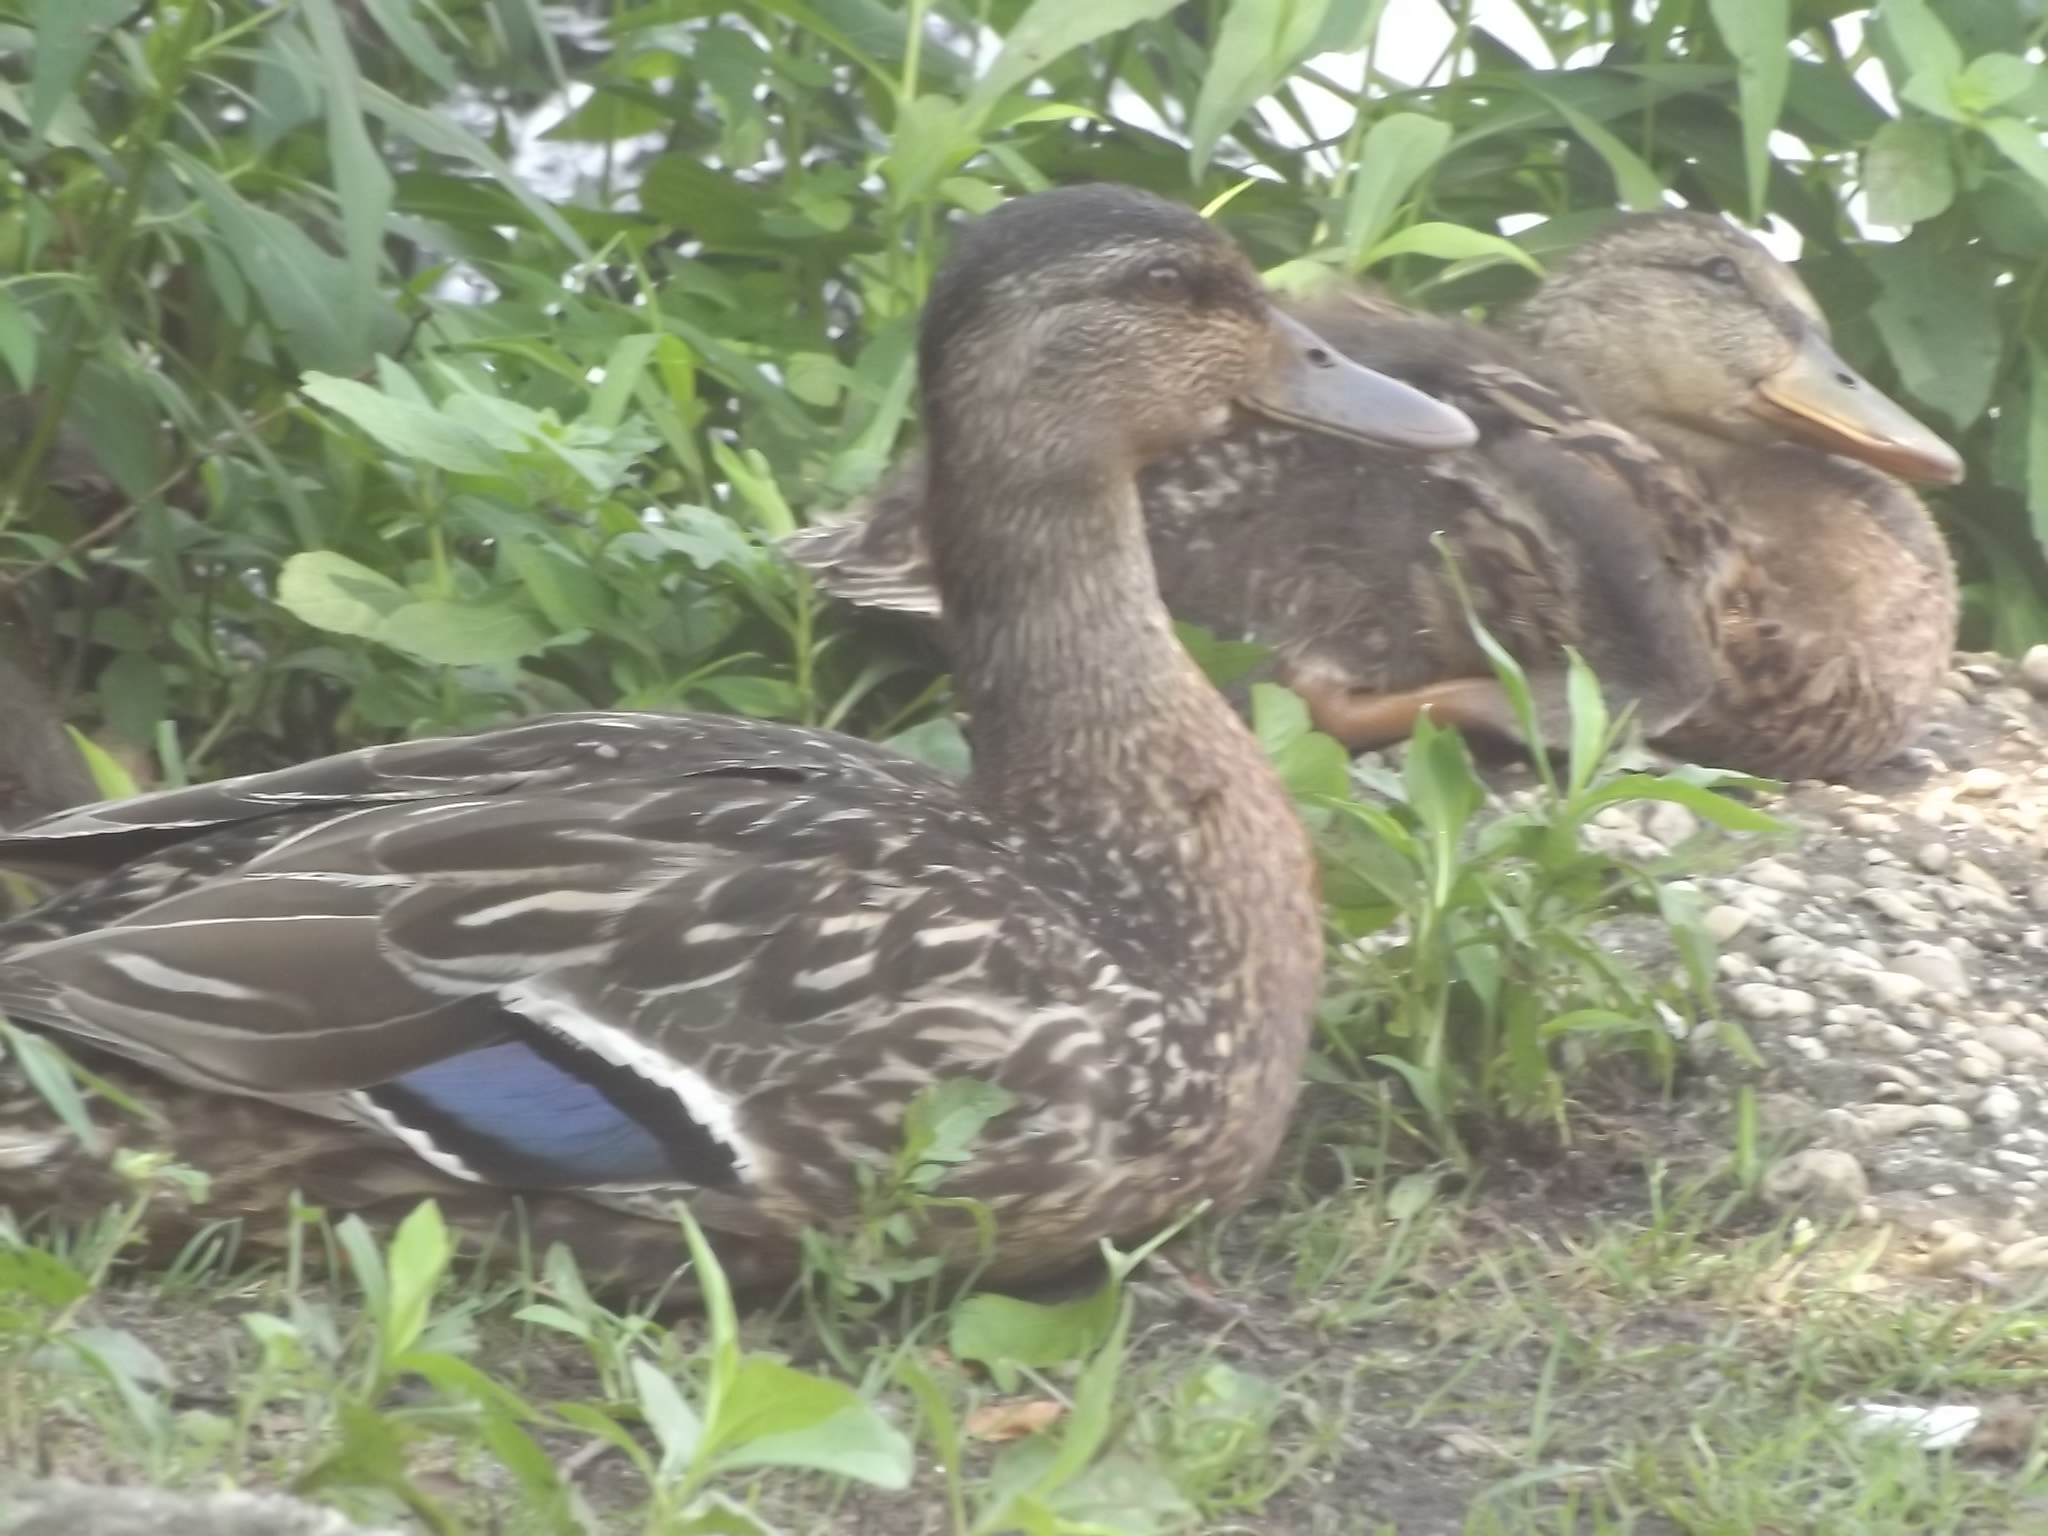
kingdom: Animalia
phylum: Chordata
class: Aves
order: Anseriformes
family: Anatidae
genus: Anas
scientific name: Anas platyrhynchos
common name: Mallard
